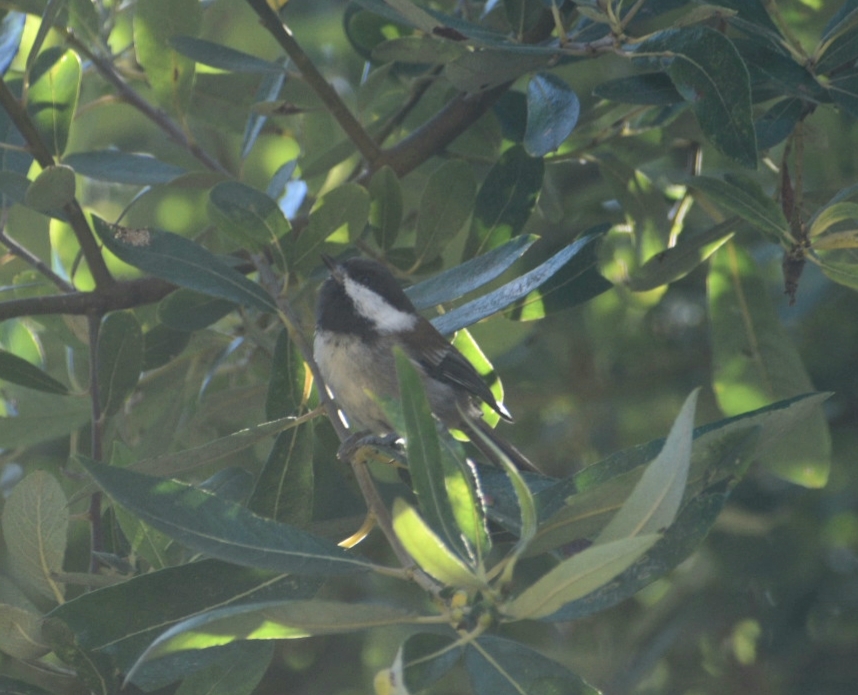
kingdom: Animalia
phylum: Chordata
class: Aves
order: Passeriformes
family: Paridae
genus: Poecile
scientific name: Poecile rufescens
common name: Chestnut-backed chickadee
